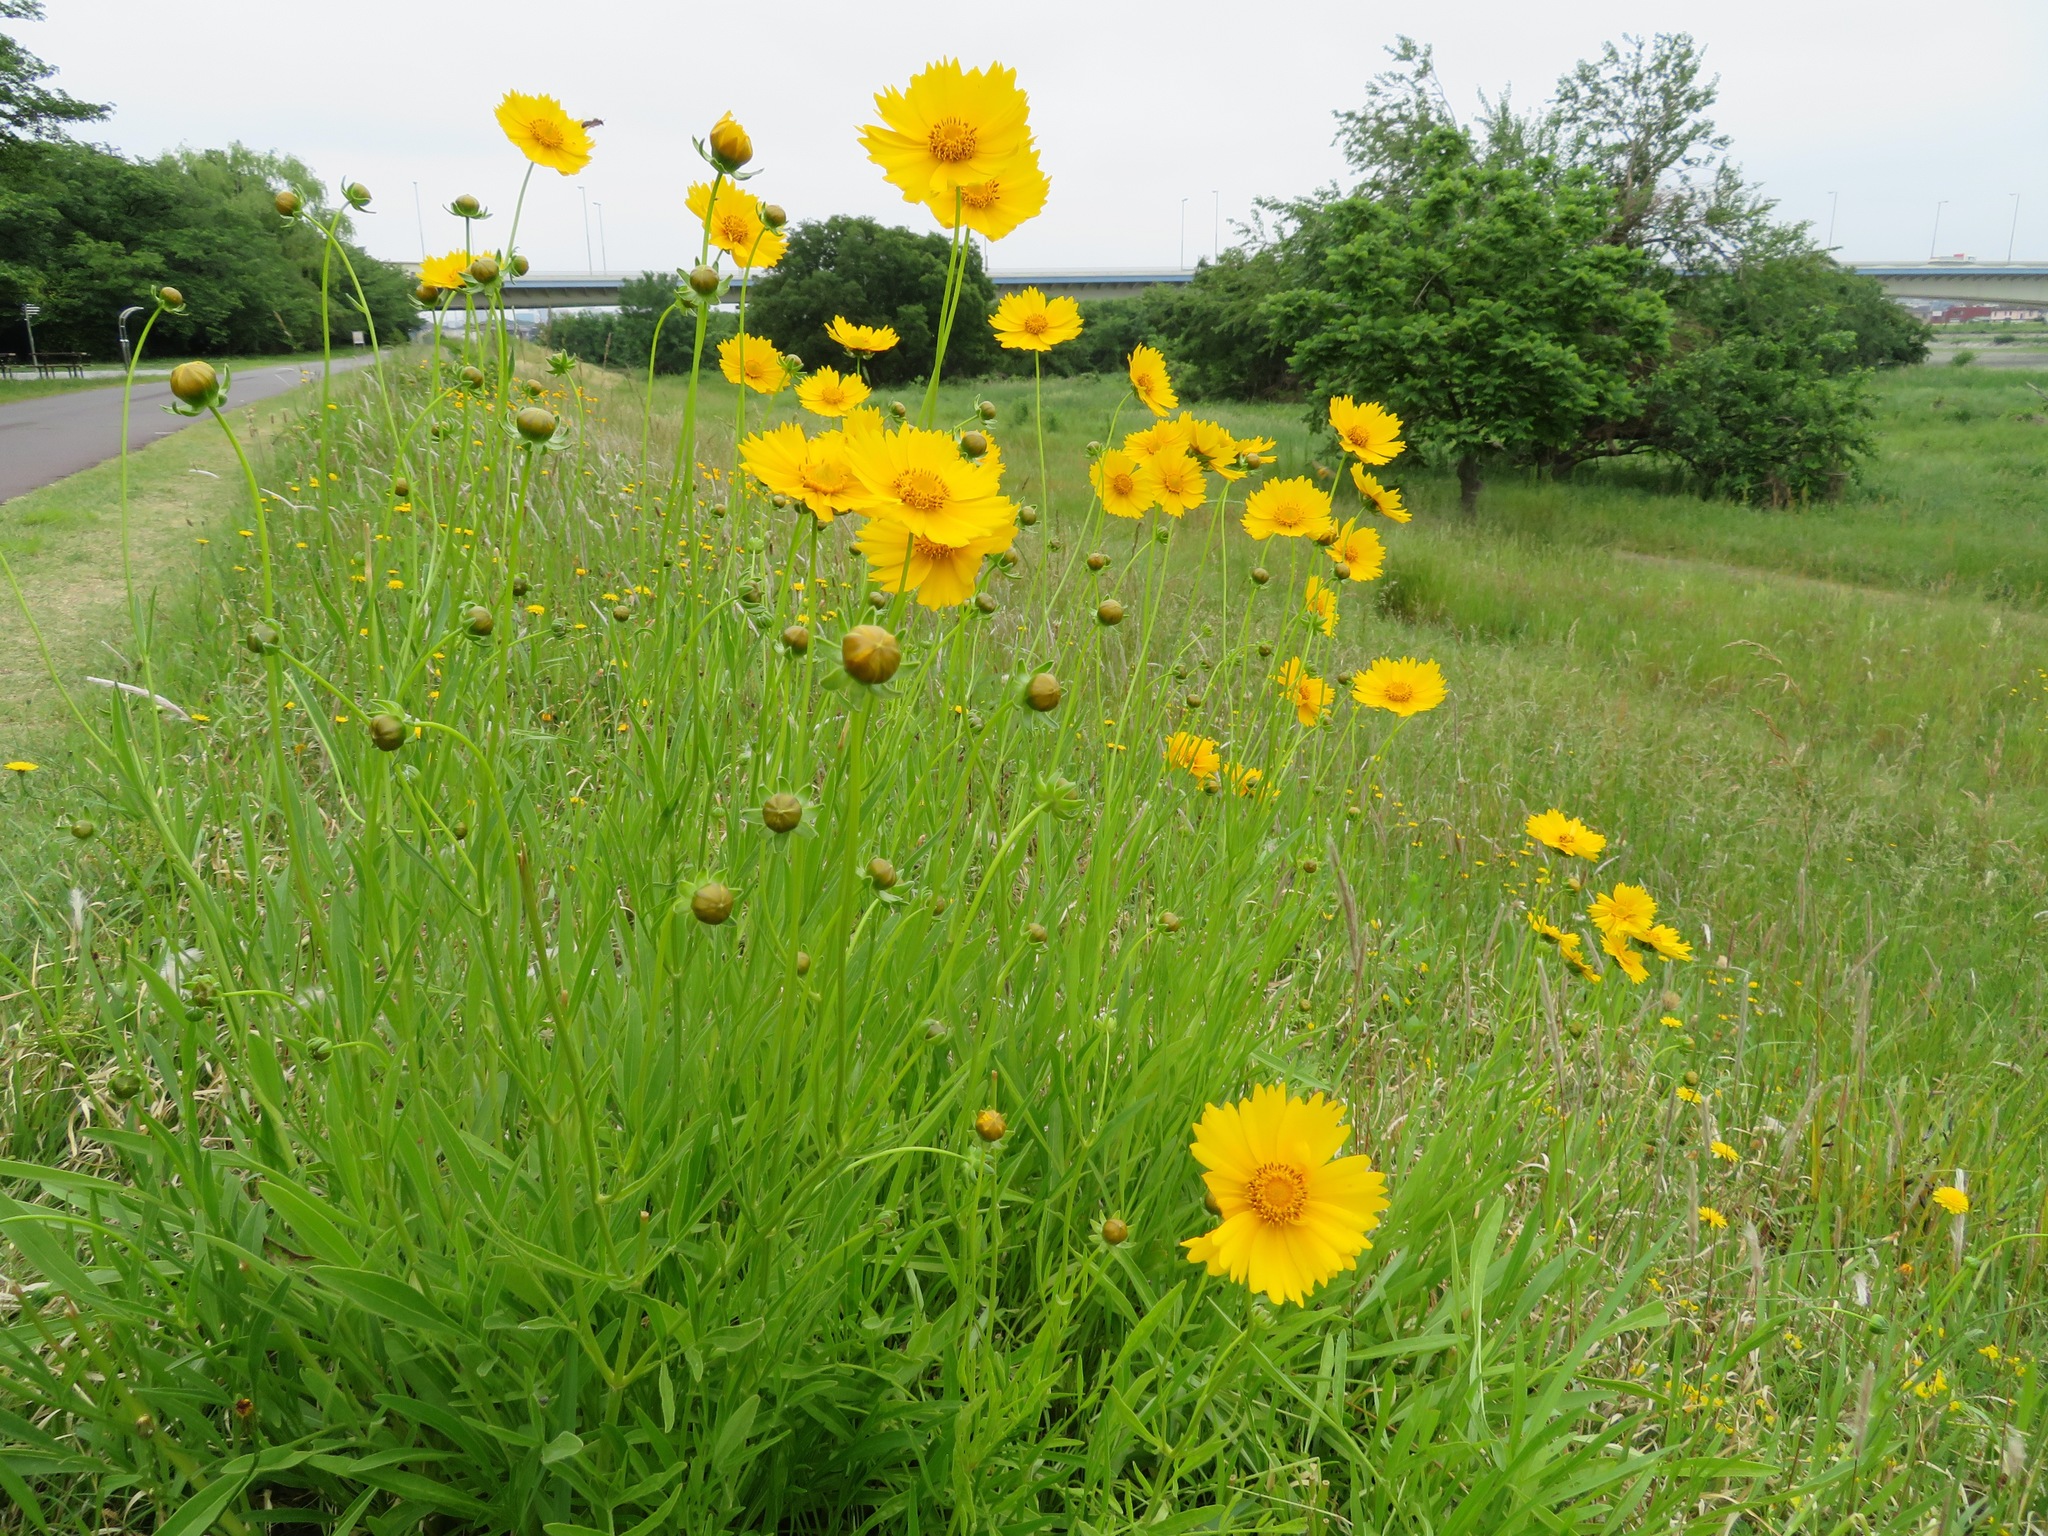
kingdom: Plantae
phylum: Tracheophyta
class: Magnoliopsida
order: Asterales
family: Asteraceae
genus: Coreopsis
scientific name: Coreopsis lanceolata
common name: Garden coreopsis
